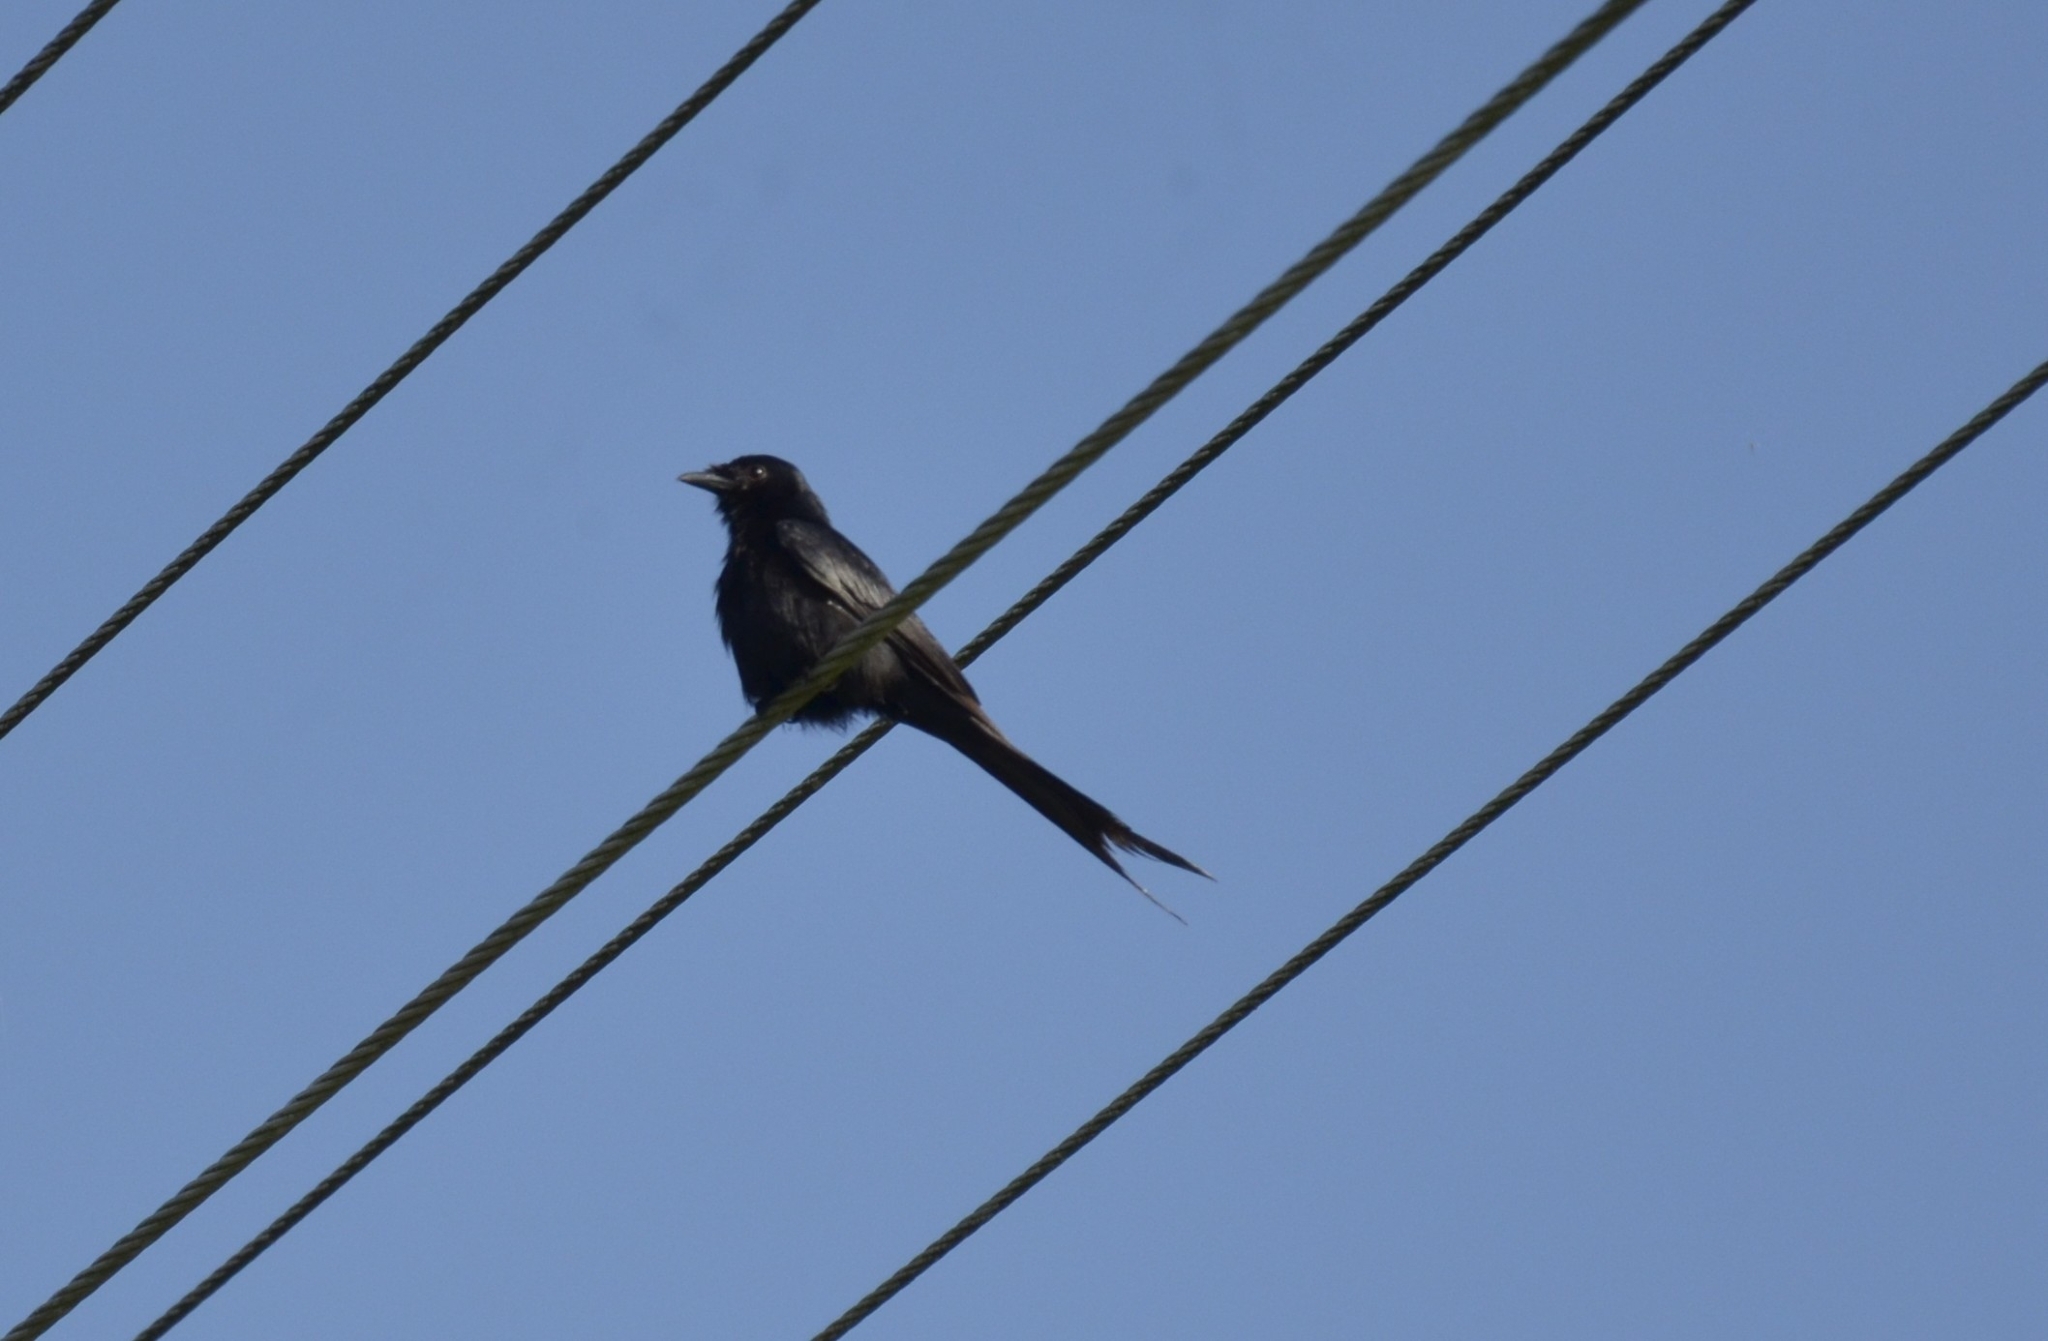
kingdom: Animalia
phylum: Chordata
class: Aves
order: Passeriformes
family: Dicruridae
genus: Dicrurus
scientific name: Dicrurus macrocercus
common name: Black drongo
